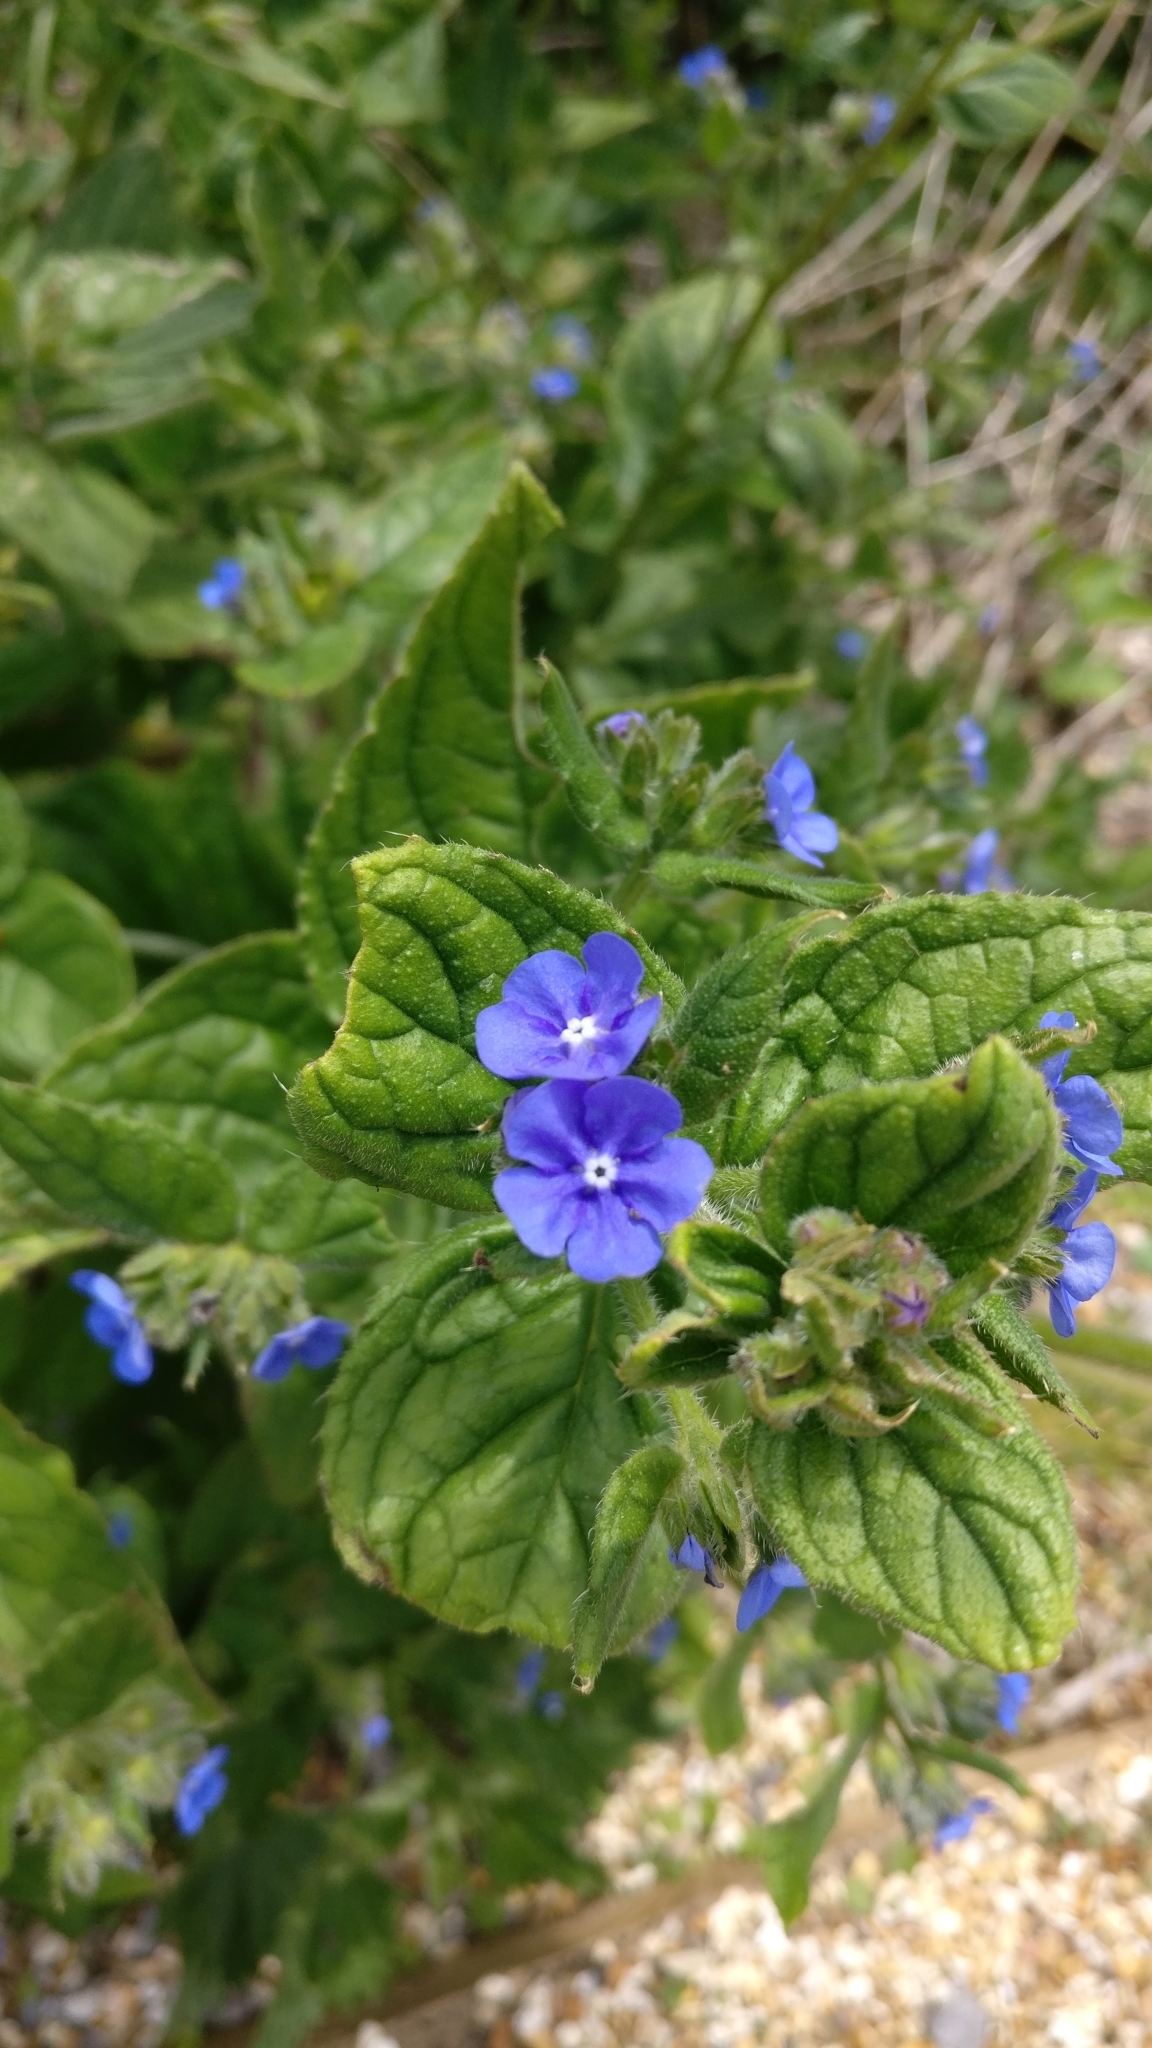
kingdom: Plantae
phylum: Tracheophyta
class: Magnoliopsida
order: Boraginales
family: Boraginaceae
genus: Pentaglottis
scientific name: Pentaglottis sempervirens
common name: Green alkanet
